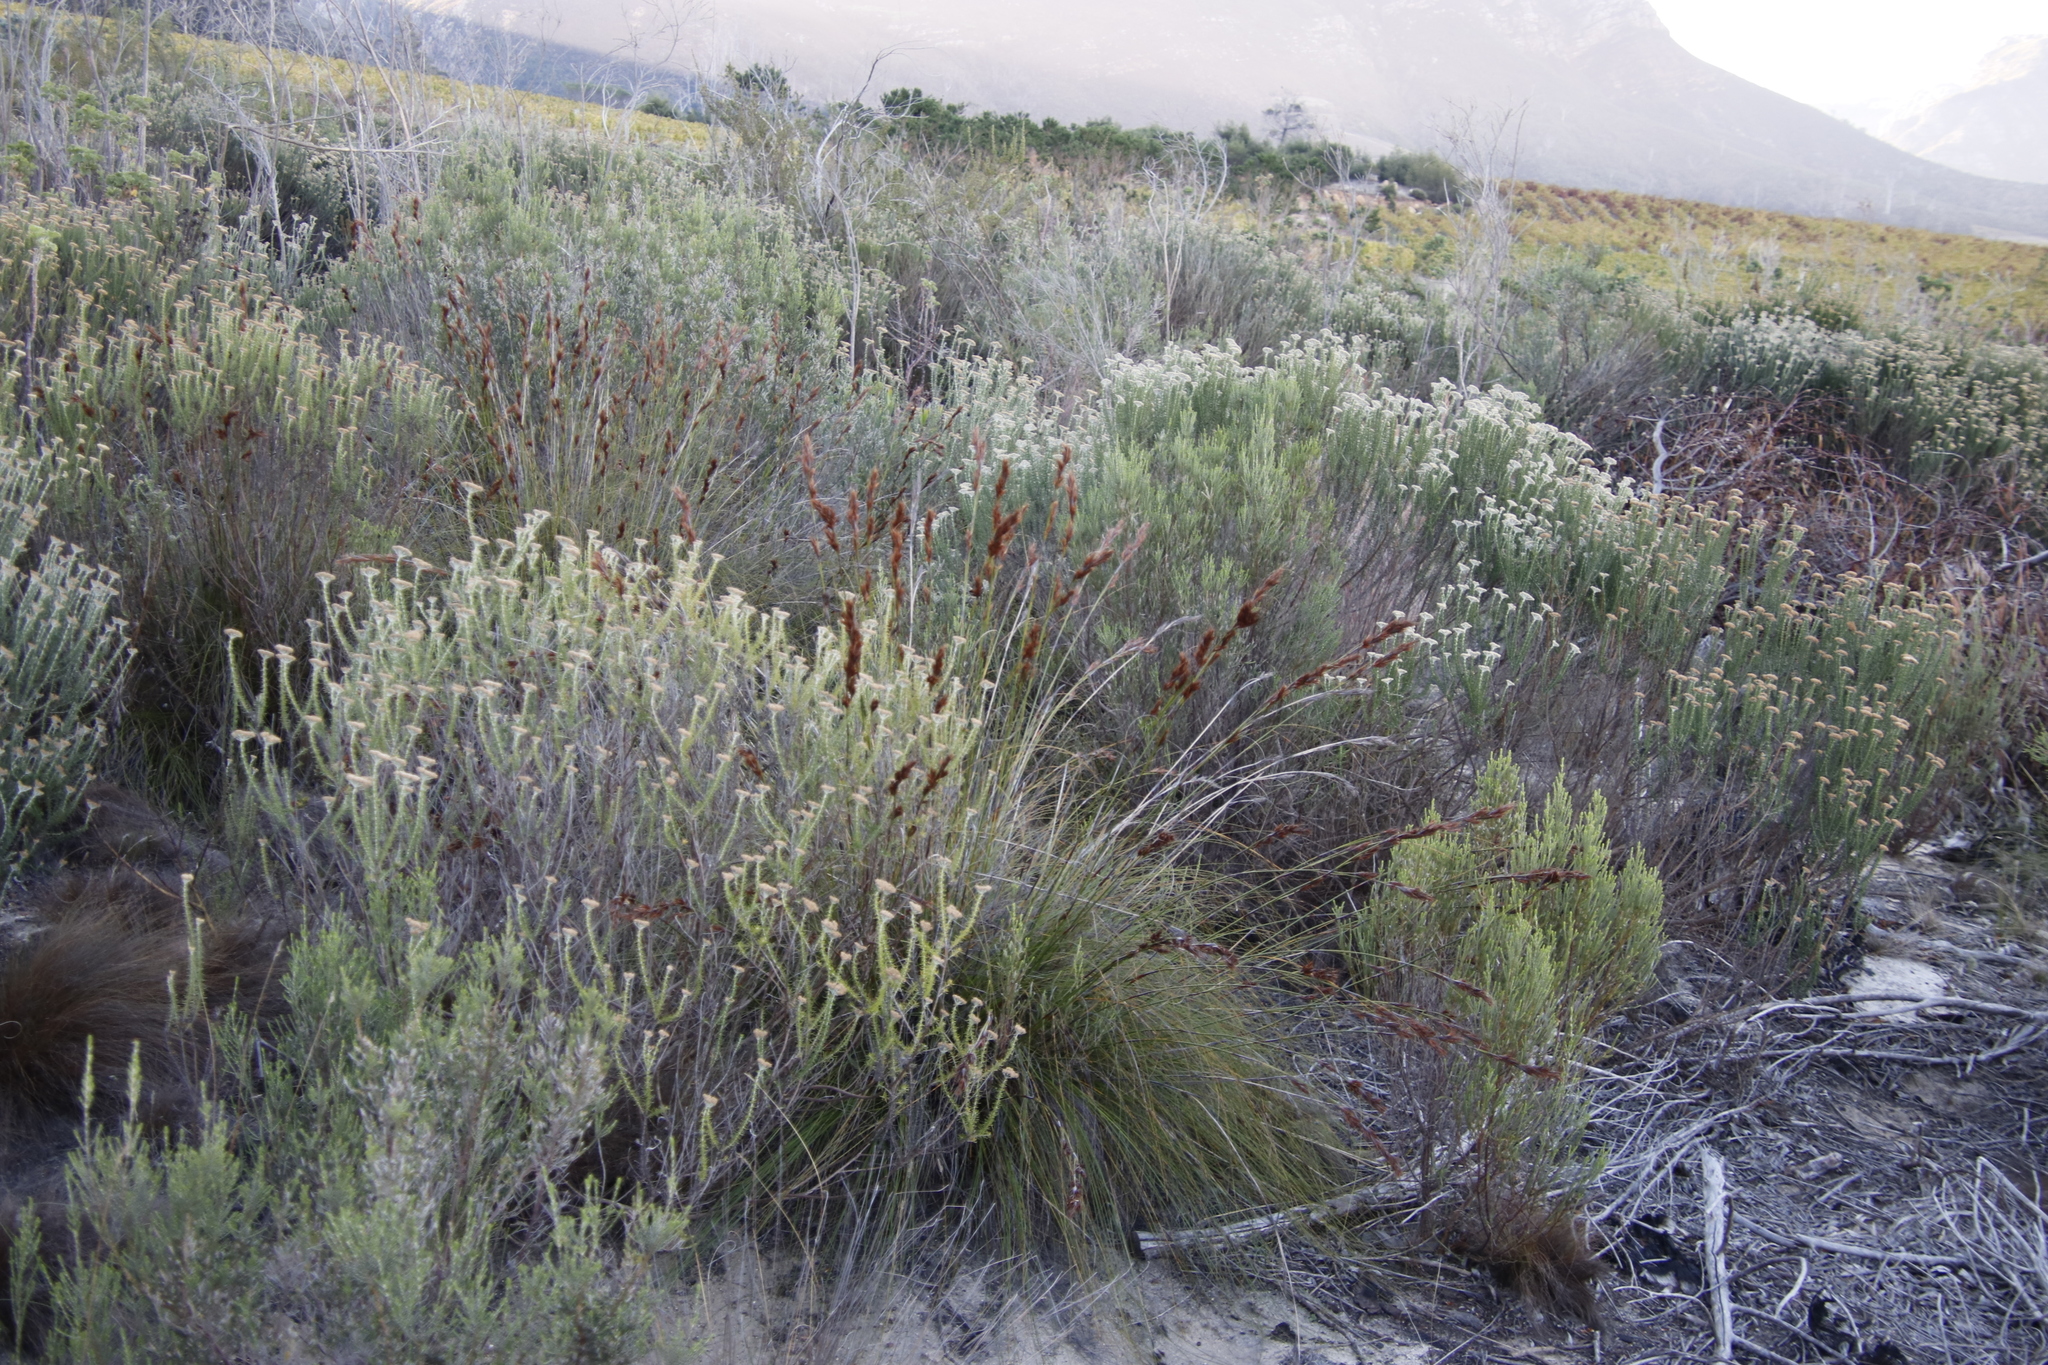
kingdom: Plantae
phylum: Tracheophyta
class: Liliopsida
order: Poales
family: Cyperaceae
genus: Tetraria
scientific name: Tetraria ustulata
